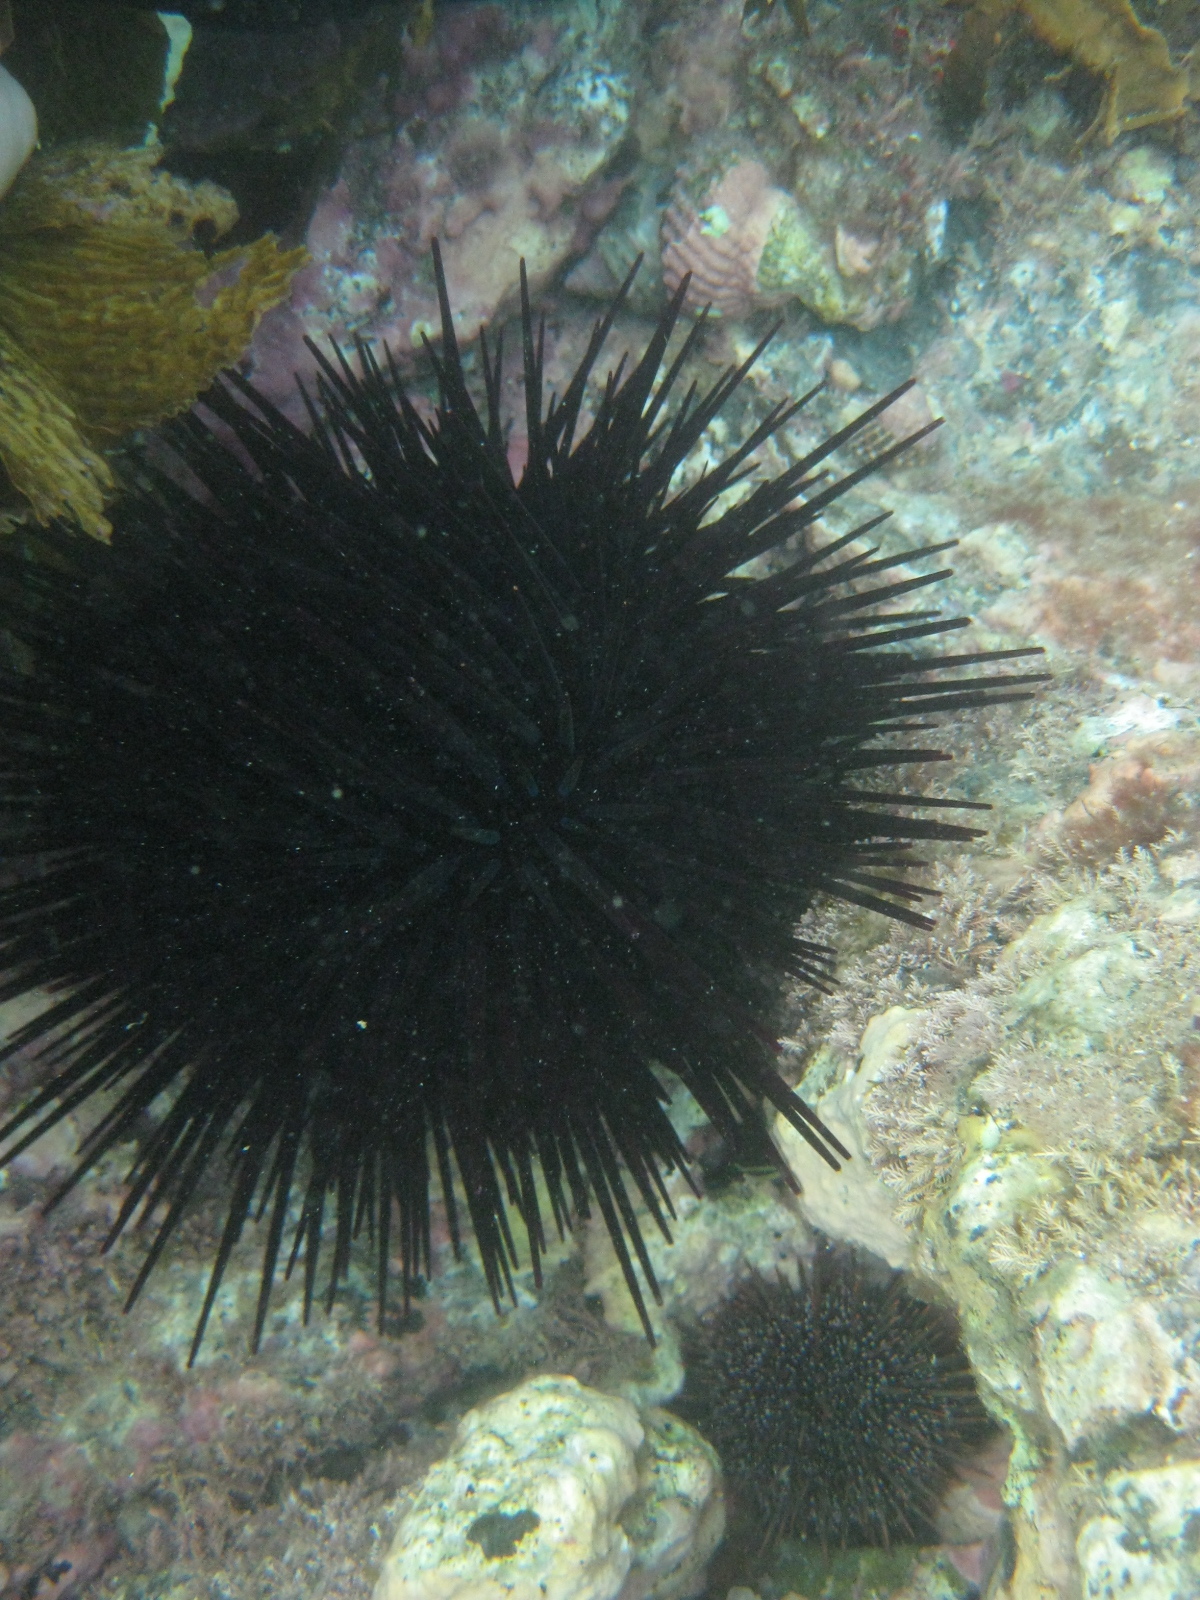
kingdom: Animalia
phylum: Echinodermata
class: Echinoidea
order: Diadematoida
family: Diadematidae
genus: Centrostephanus
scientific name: Centrostephanus rodgersii
